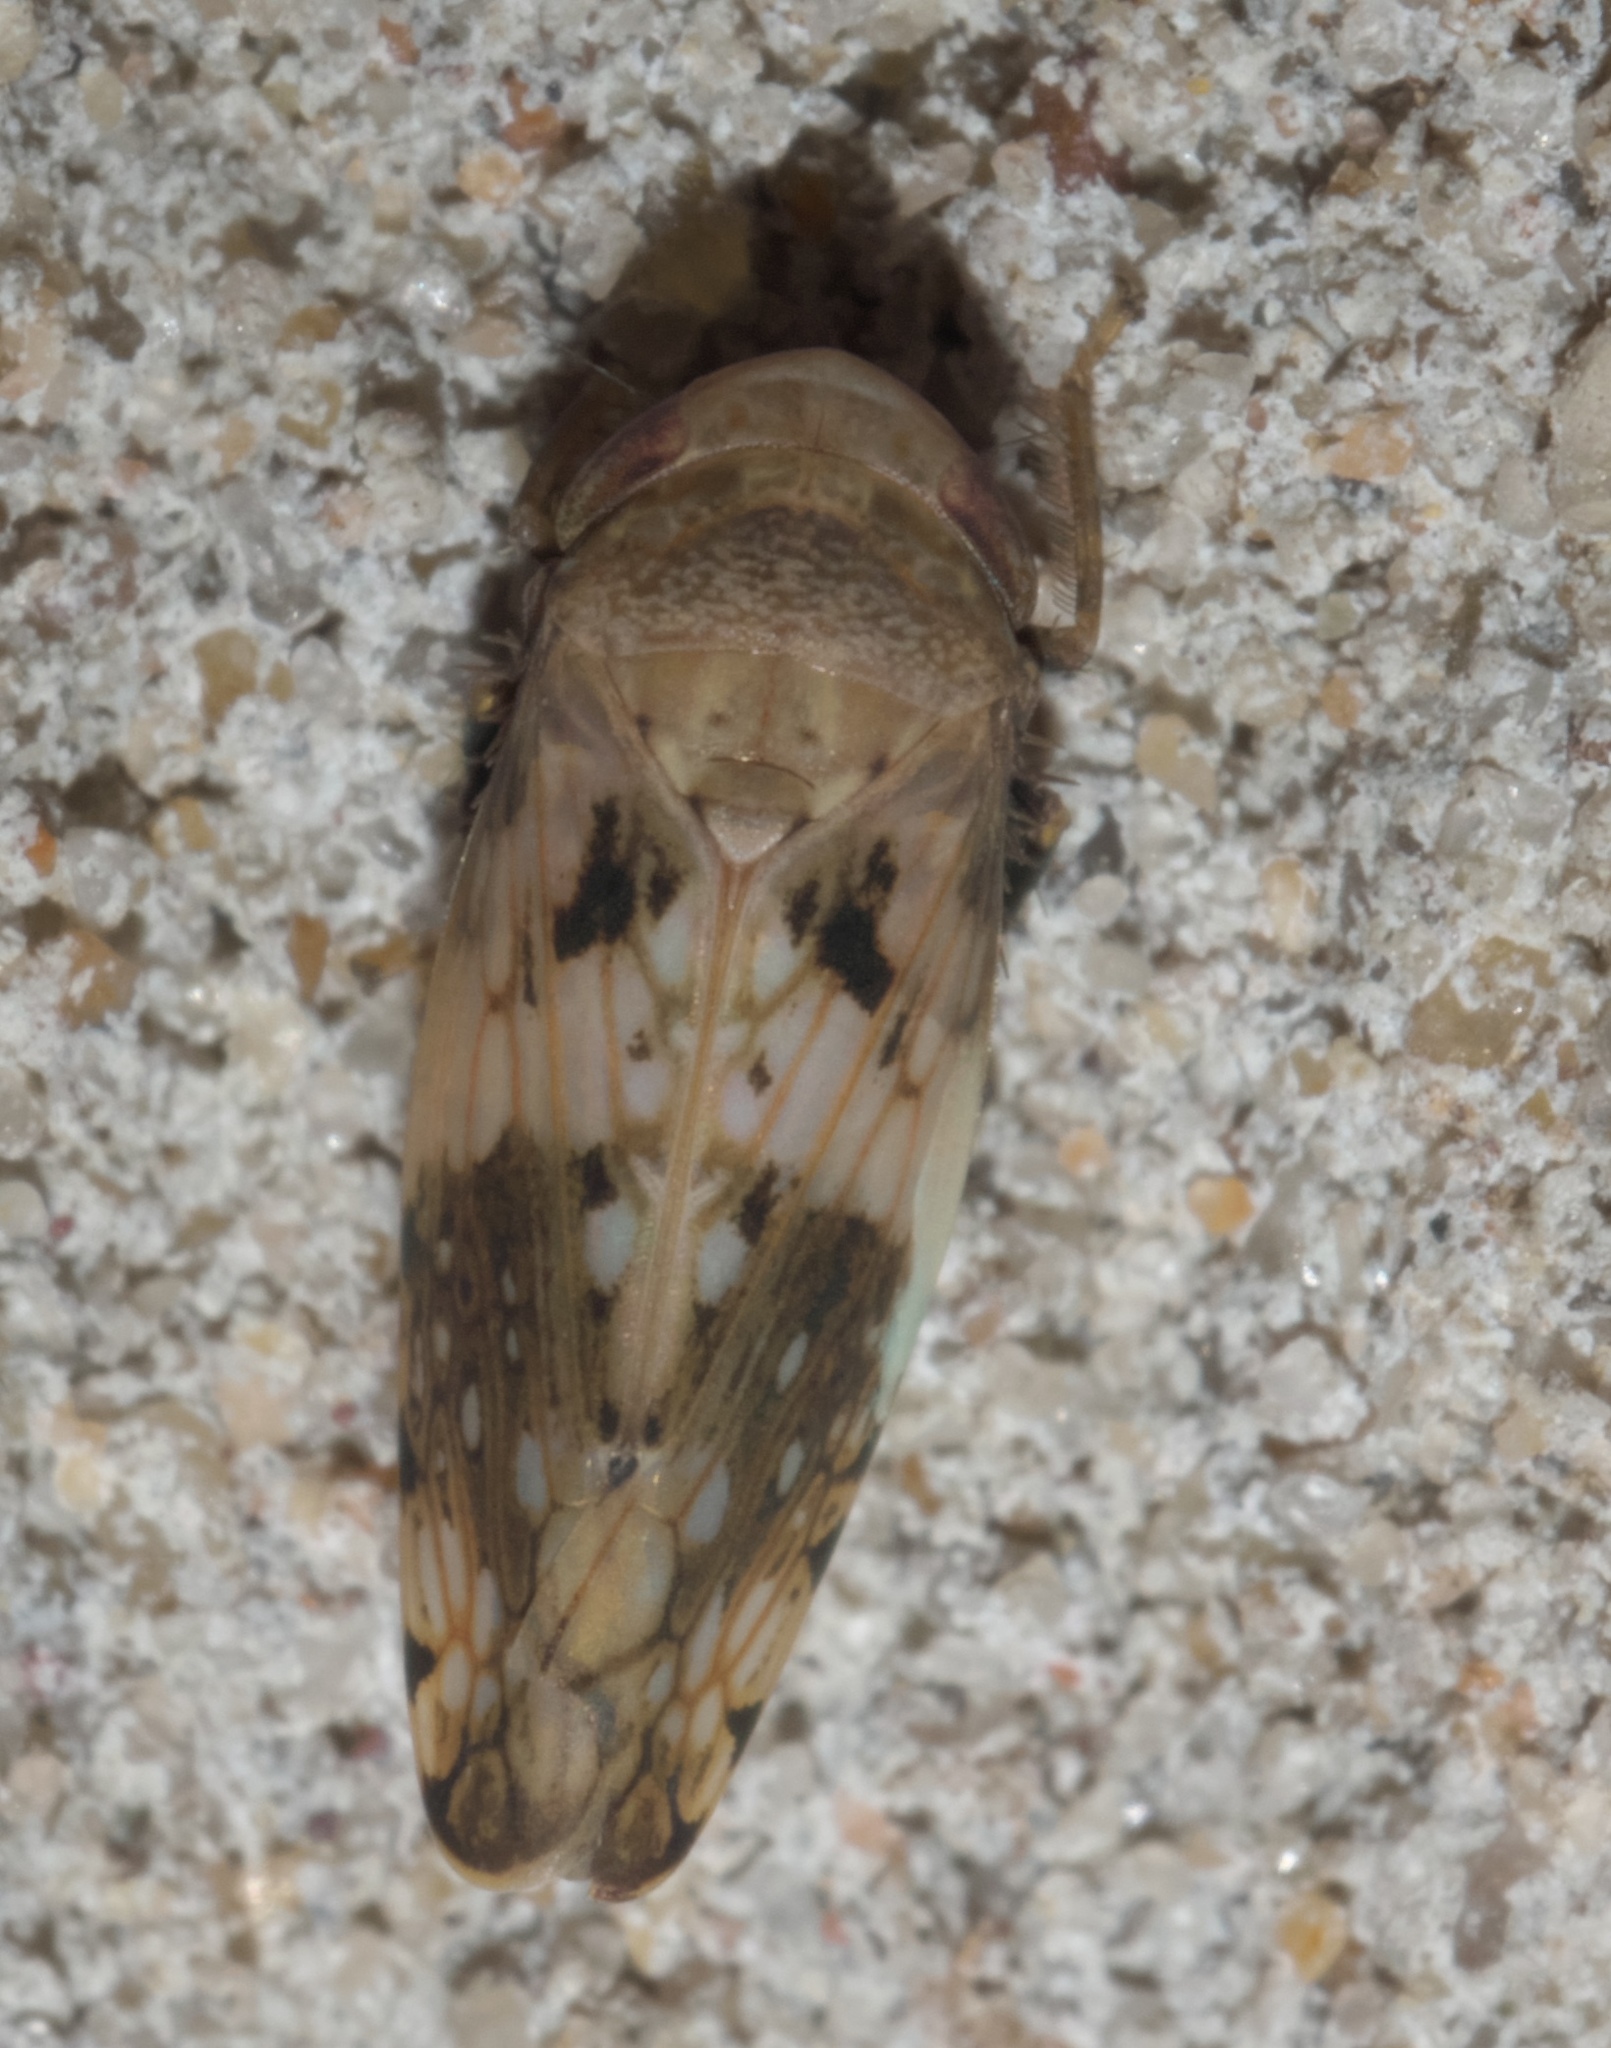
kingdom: Animalia
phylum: Arthropoda
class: Insecta
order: Hemiptera
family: Cicadellidae
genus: Menosoma
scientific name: Menosoma cinctum
